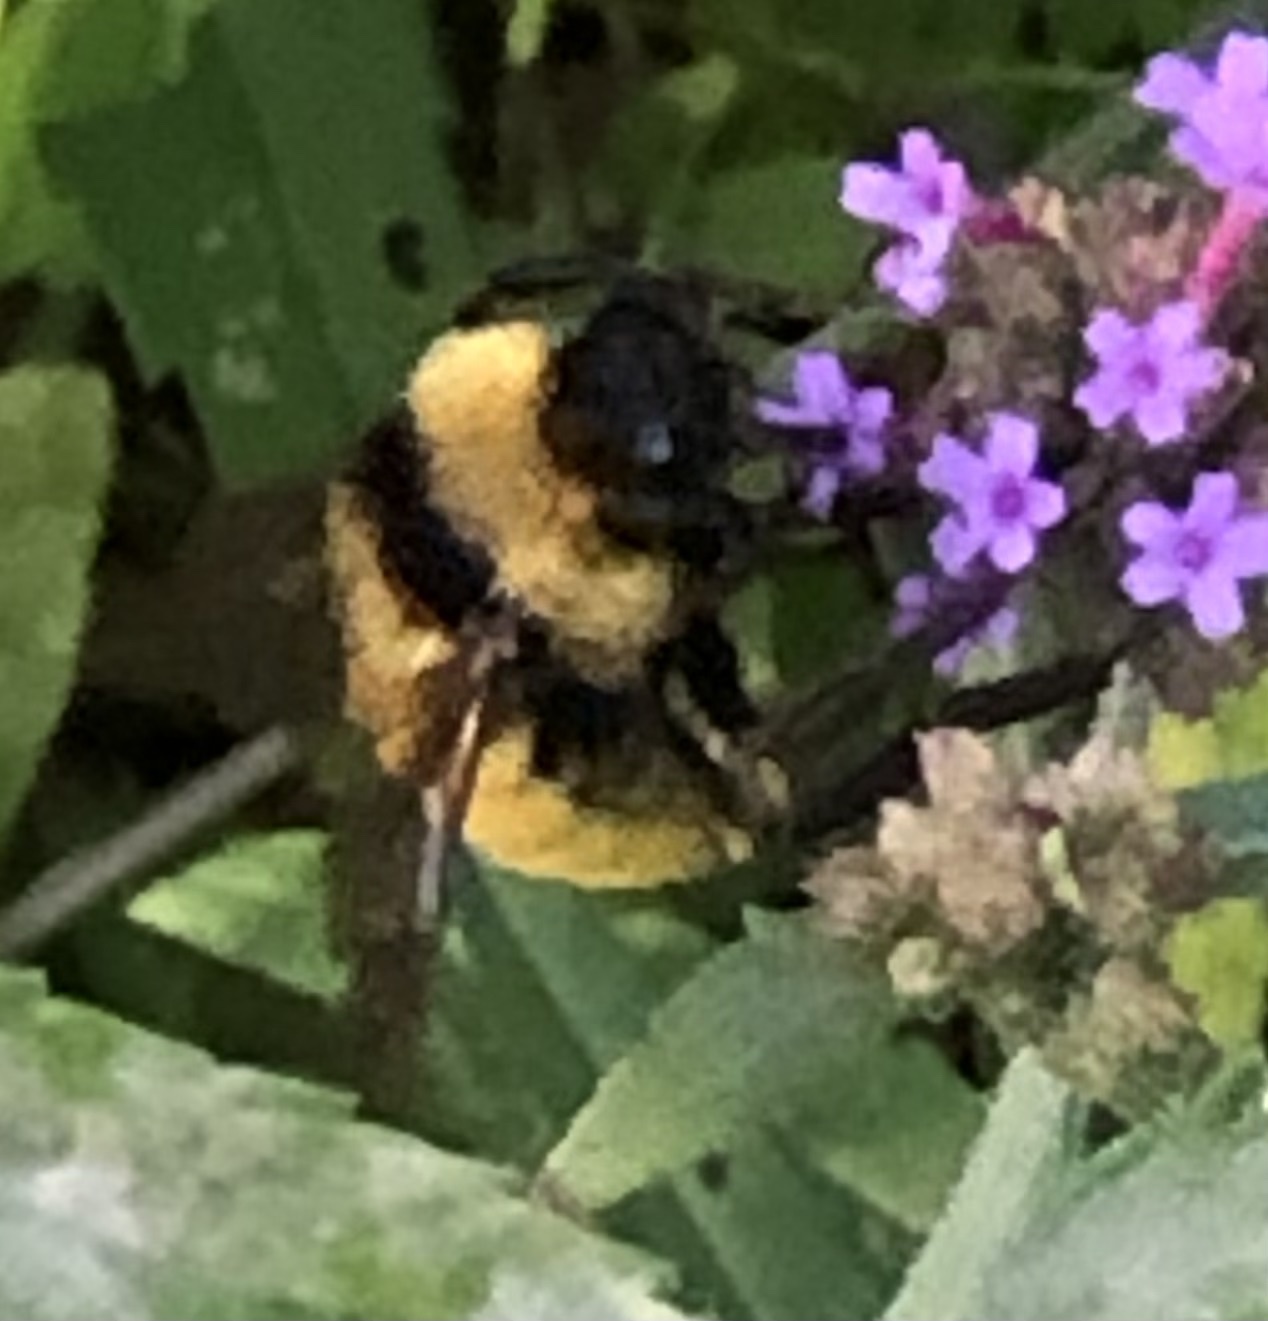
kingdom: Animalia
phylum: Arthropoda
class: Insecta
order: Hymenoptera
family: Apidae
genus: Bombus
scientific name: Bombus pensylvanicus
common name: Bumble bee
